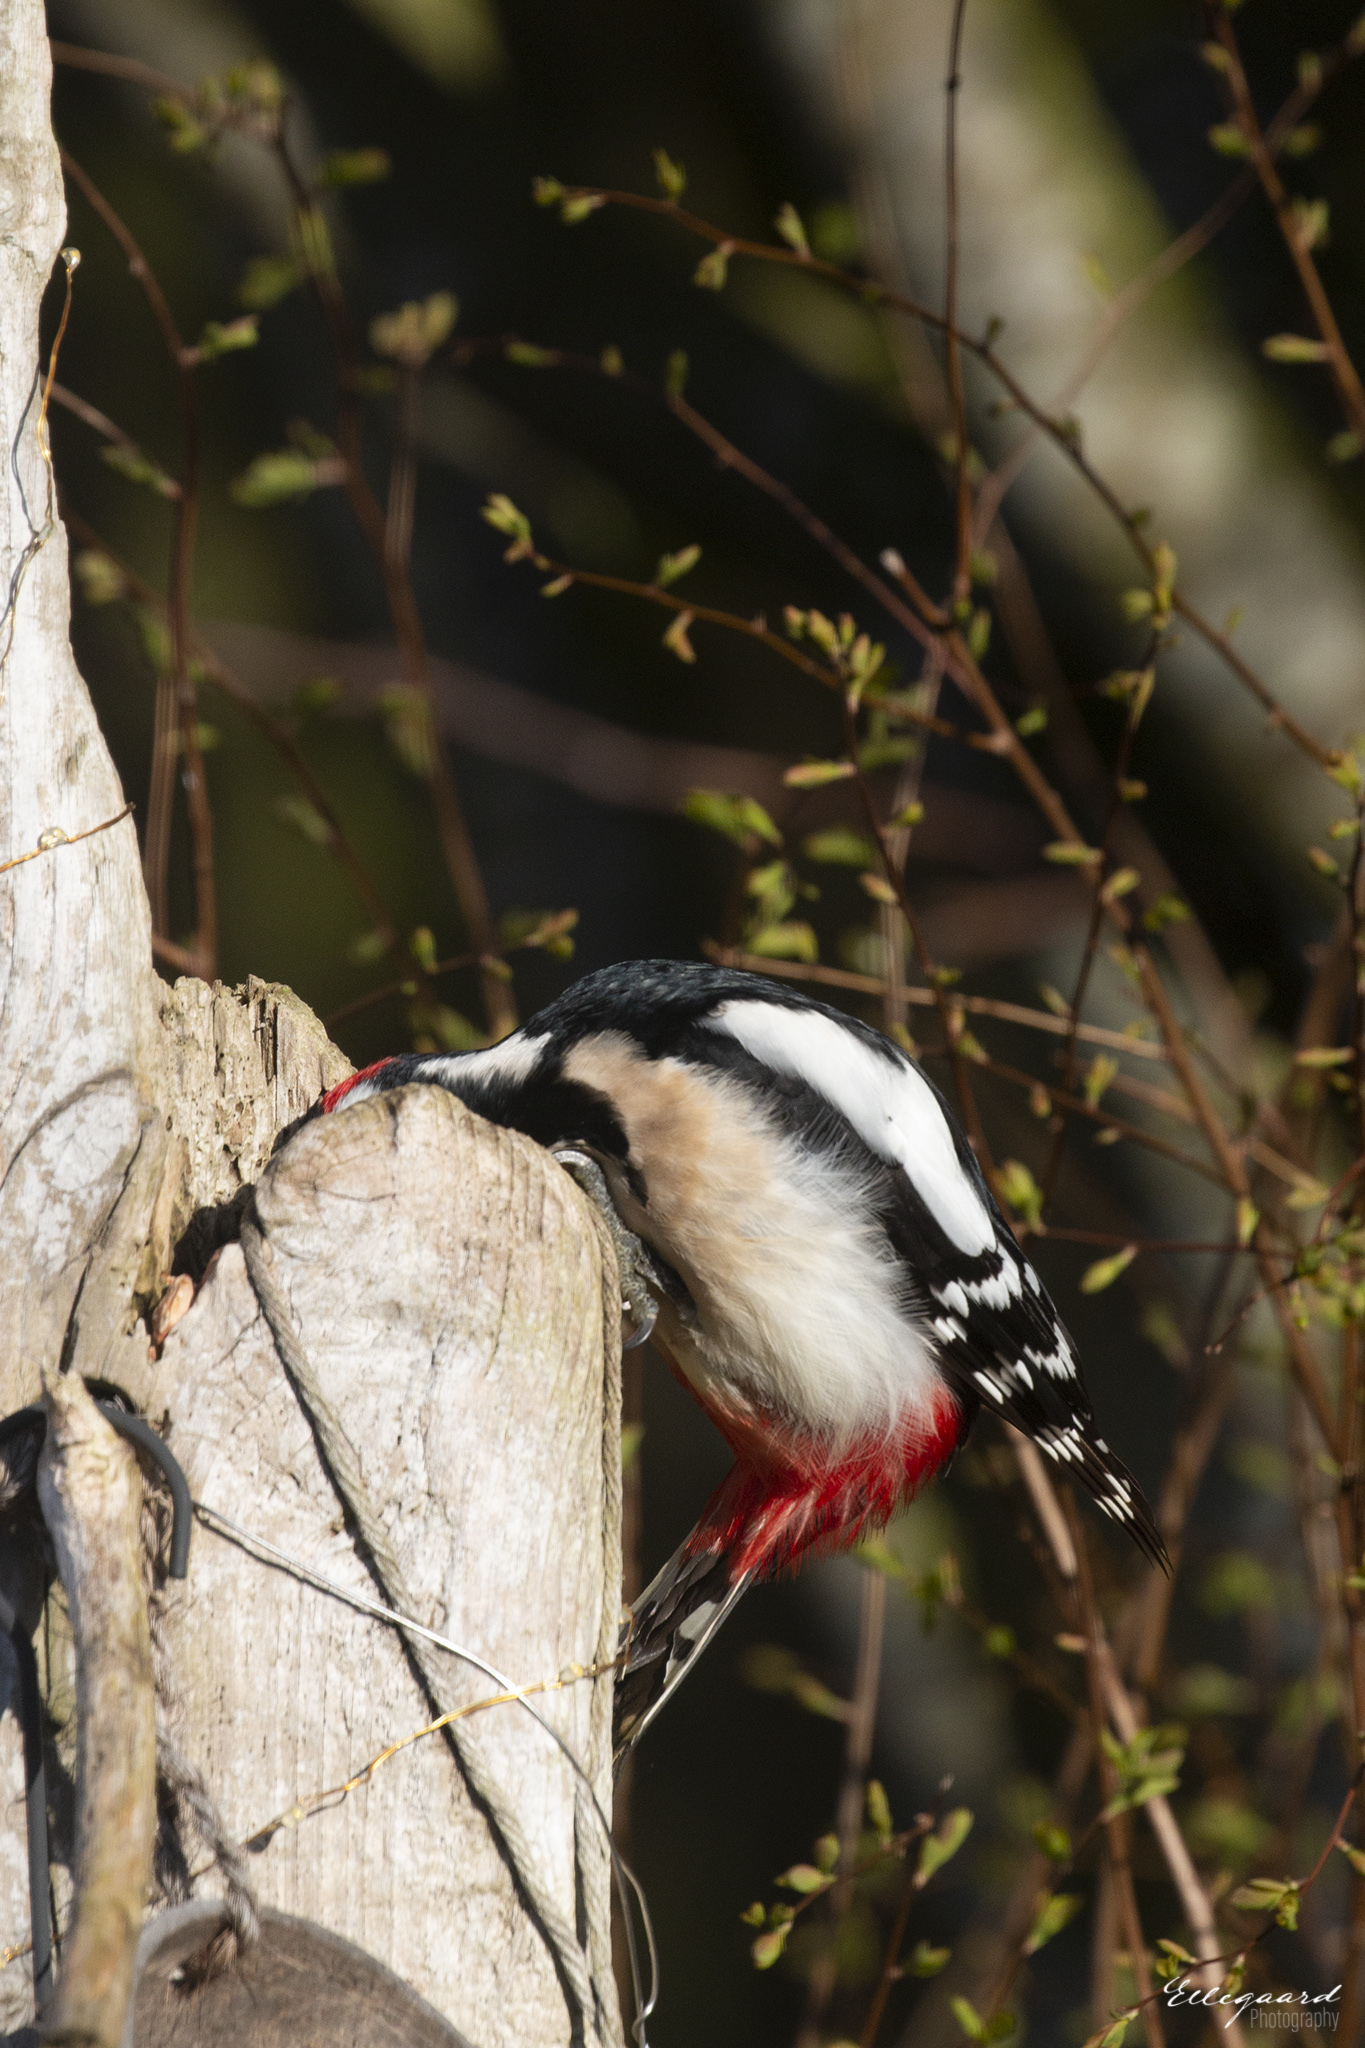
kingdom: Animalia
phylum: Chordata
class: Aves
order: Piciformes
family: Picidae
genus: Dendrocopos
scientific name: Dendrocopos major
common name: Great spotted woodpecker
